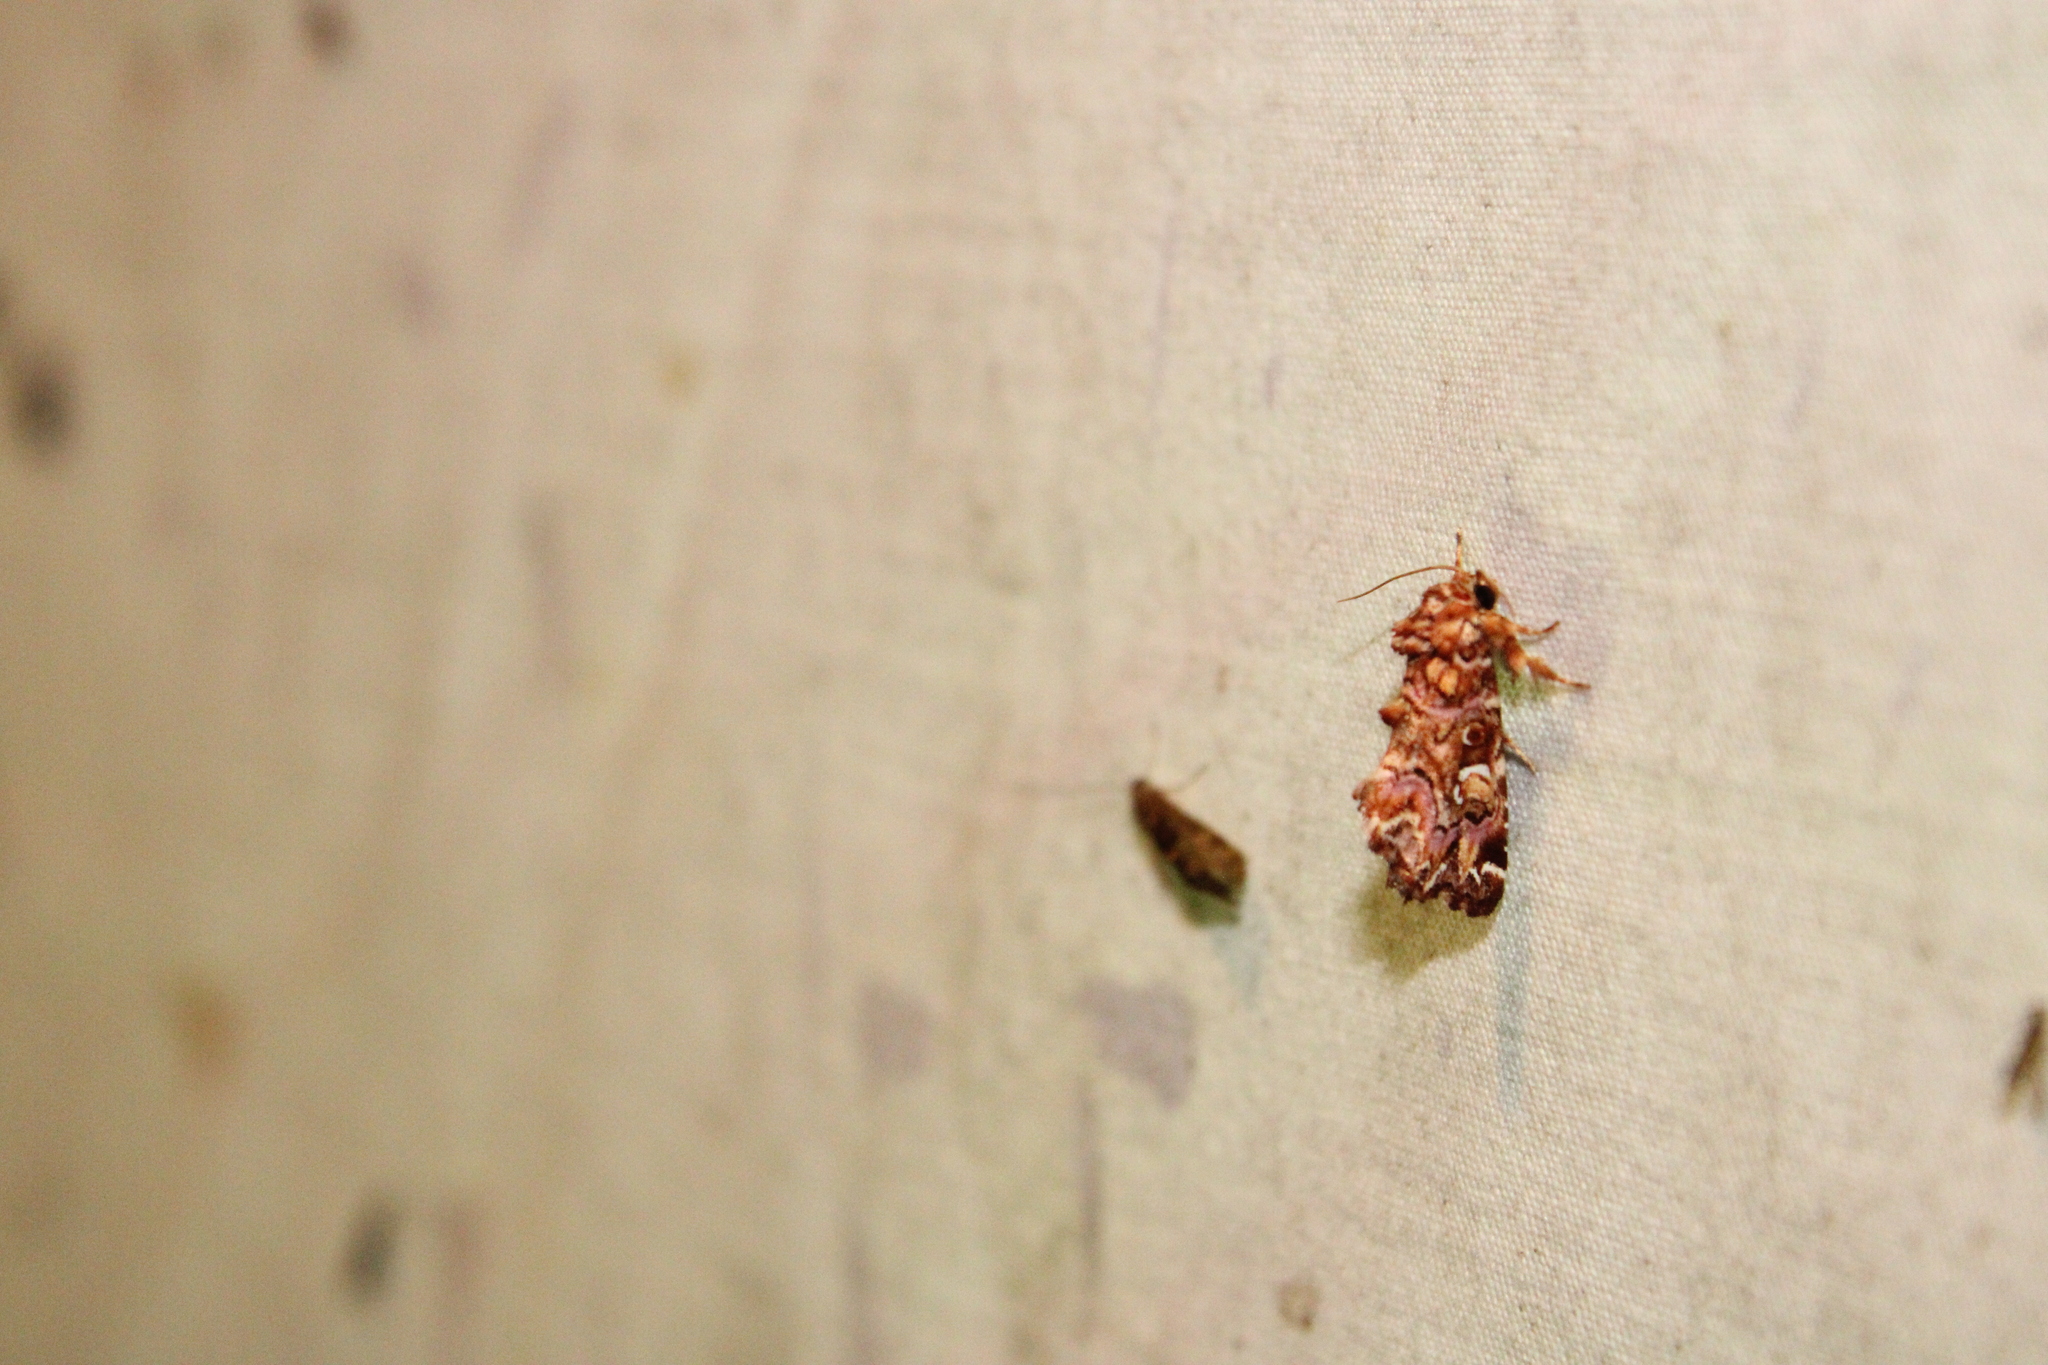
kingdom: Animalia
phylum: Arthropoda
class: Insecta
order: Lepidoptera
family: Noctuidae
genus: Callopistria
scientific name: Callopistria mollissima
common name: Pink-shaded fern moth
